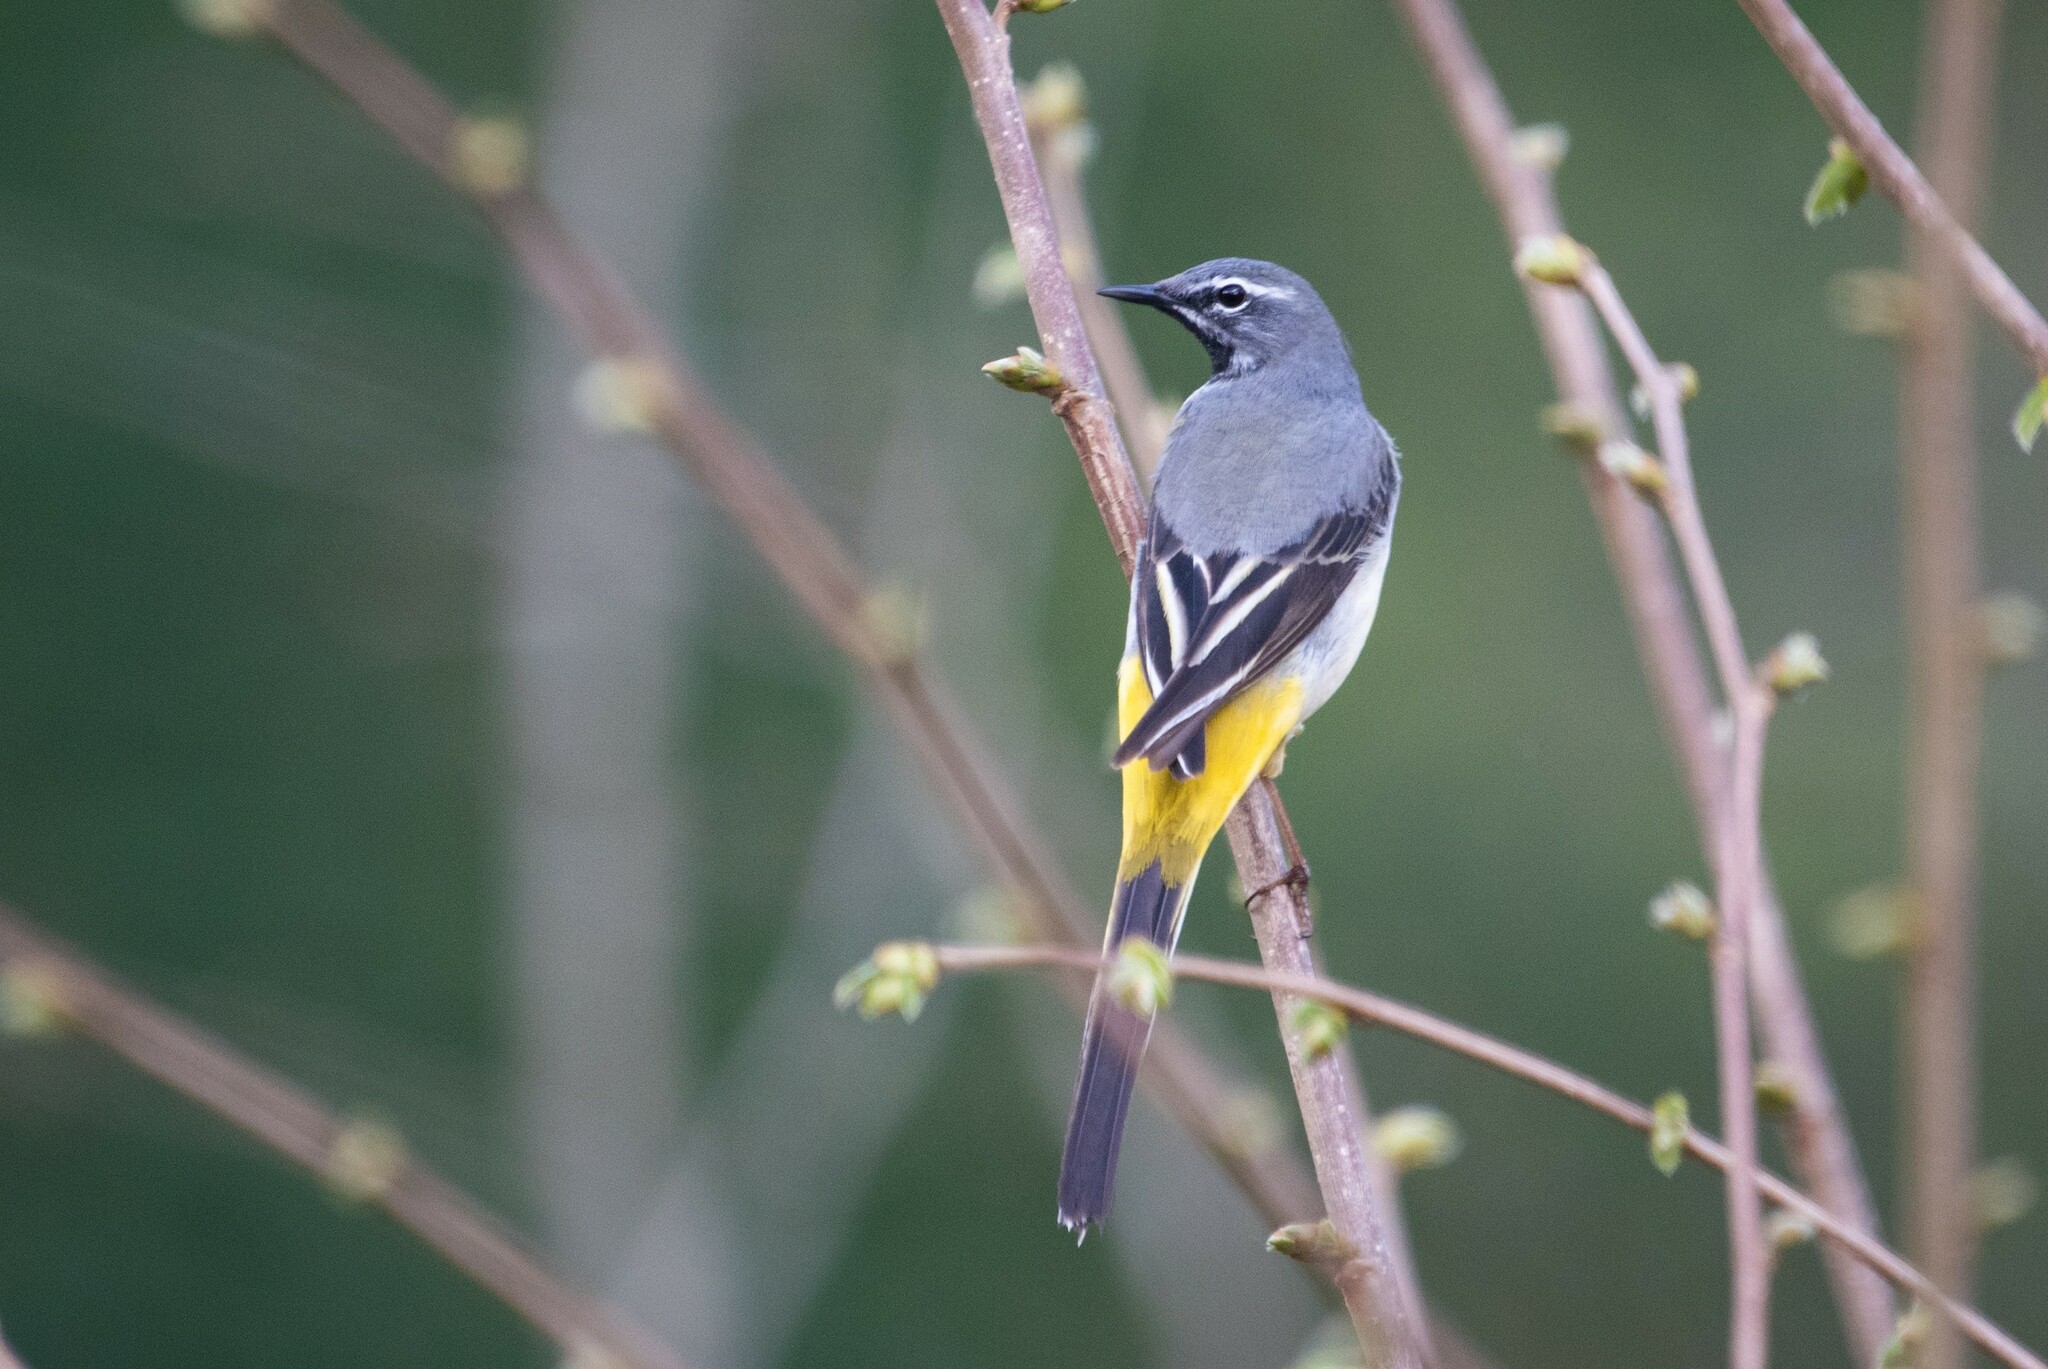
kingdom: Animalia
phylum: Chordata
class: Aves
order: Passeriformes
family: Motacillidae
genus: Motacilla
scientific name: Motacilla cinerea
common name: Grey wagtail
